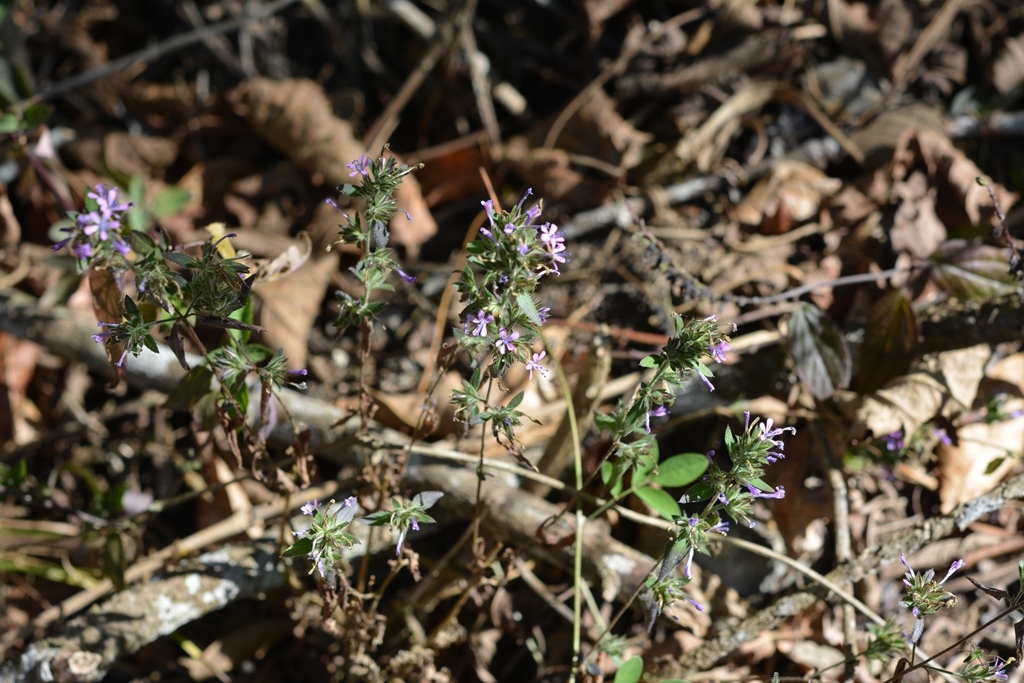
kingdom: Plantae
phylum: Tracheophyta
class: Magnoliopsida
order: Ericales
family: Polemoniaceae
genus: Loeselia
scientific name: Loeselia glandulosa
